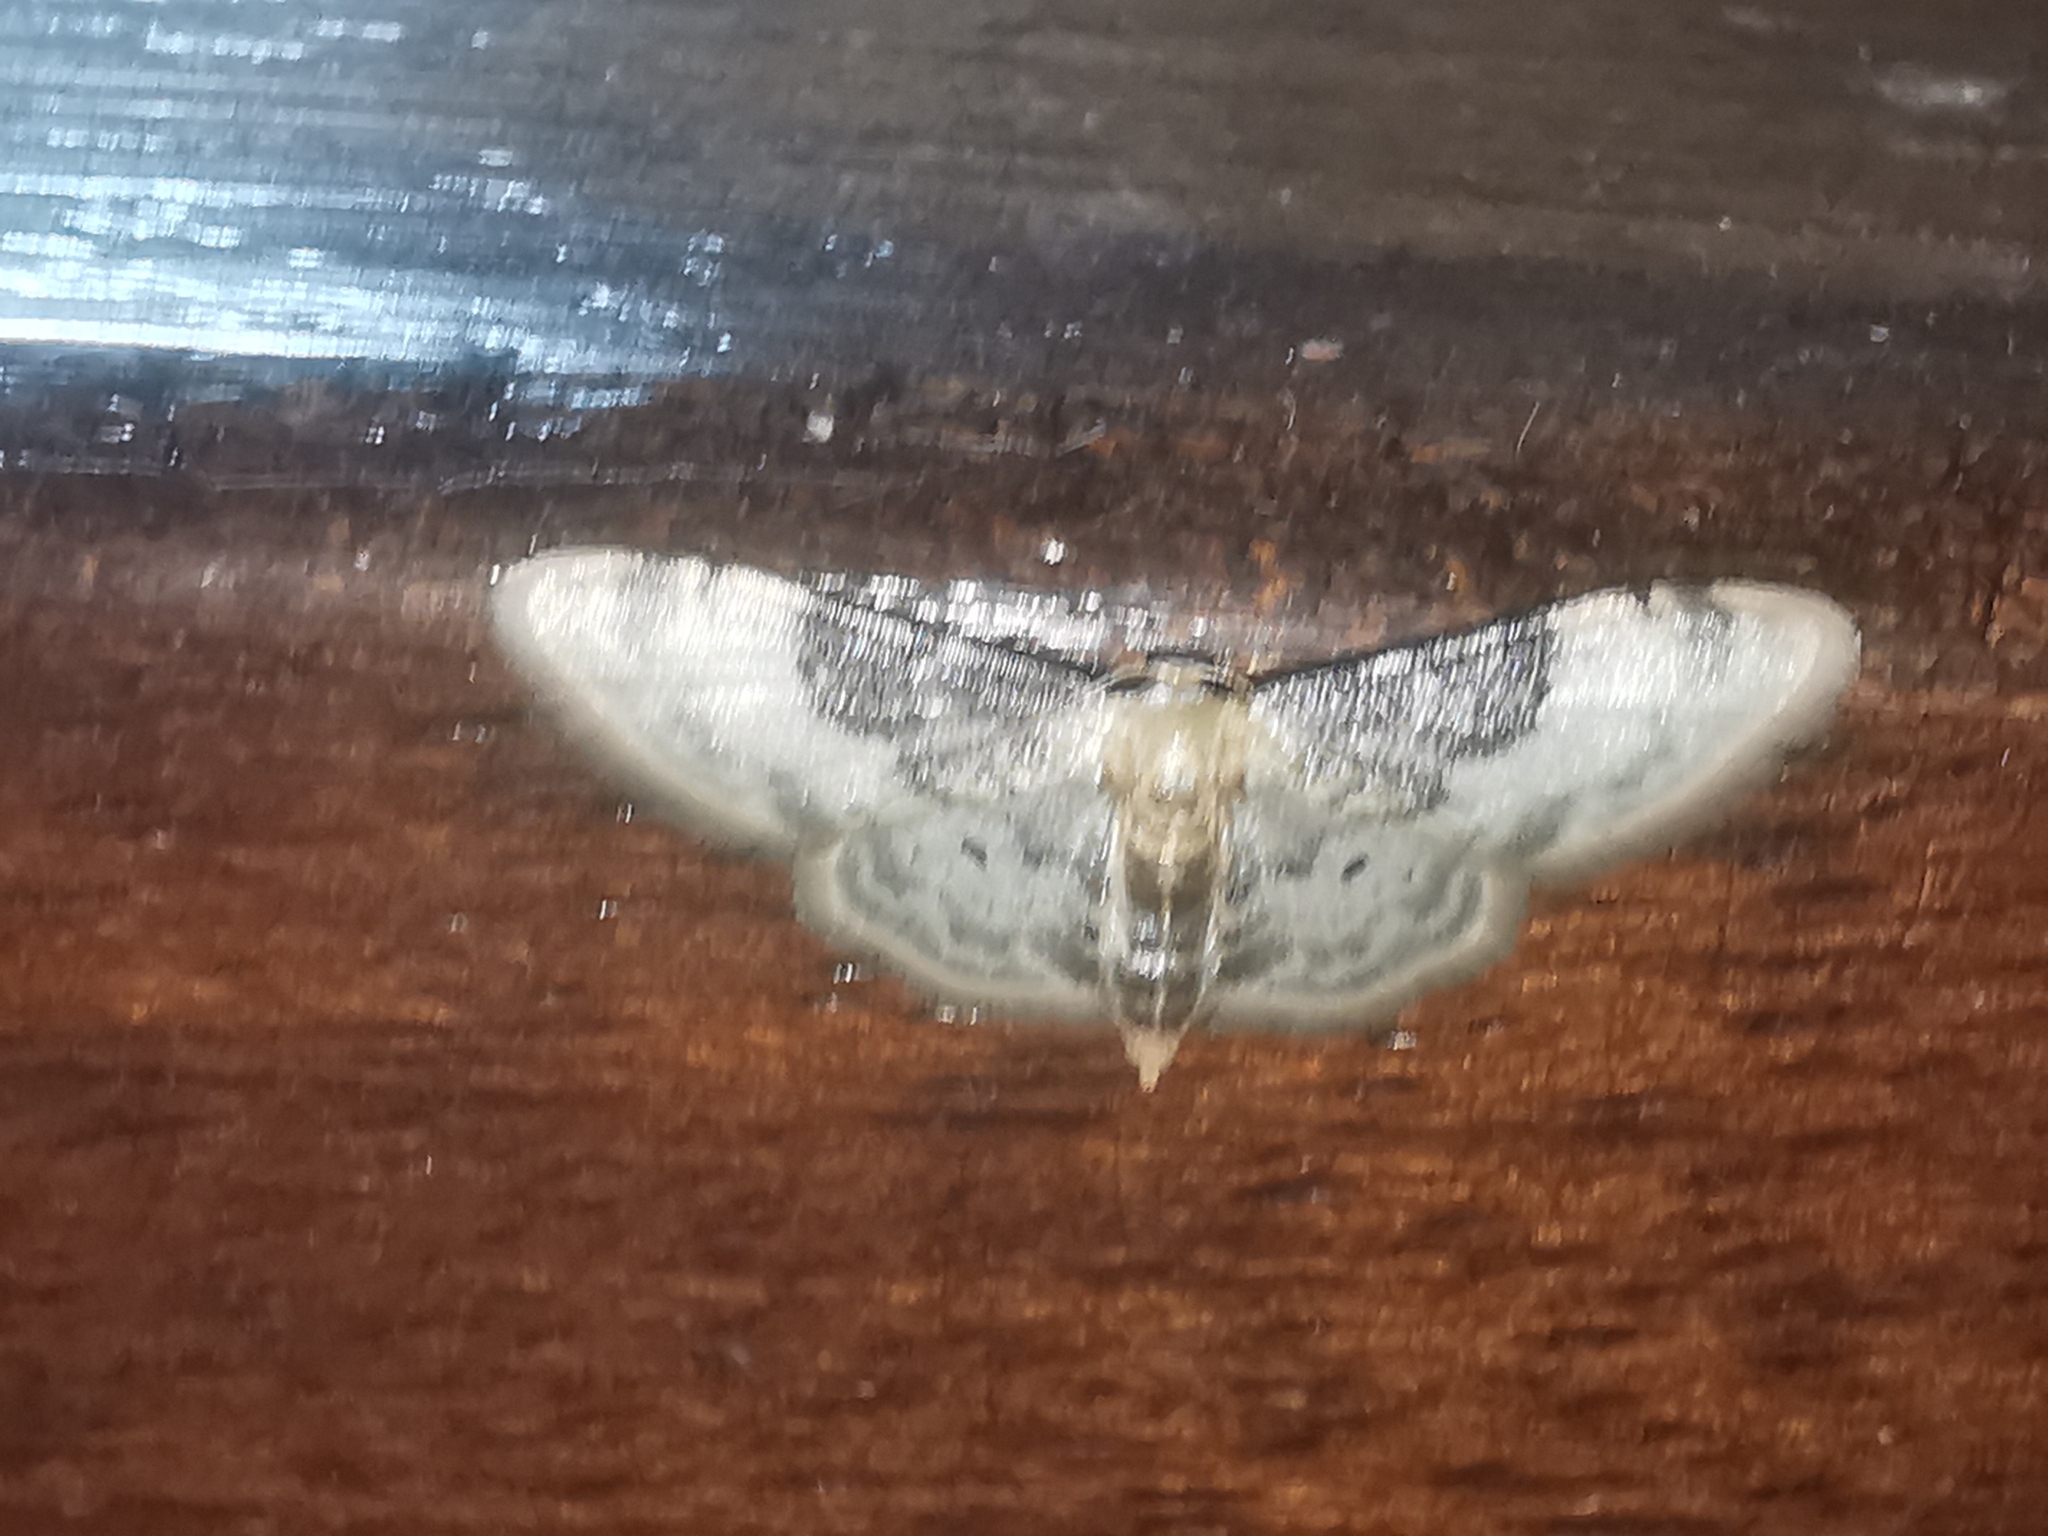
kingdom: Animalia
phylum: Arthropoda
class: Insecta
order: Lepidoptera
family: Geometridae
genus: Idaea
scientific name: Idaea filicata
